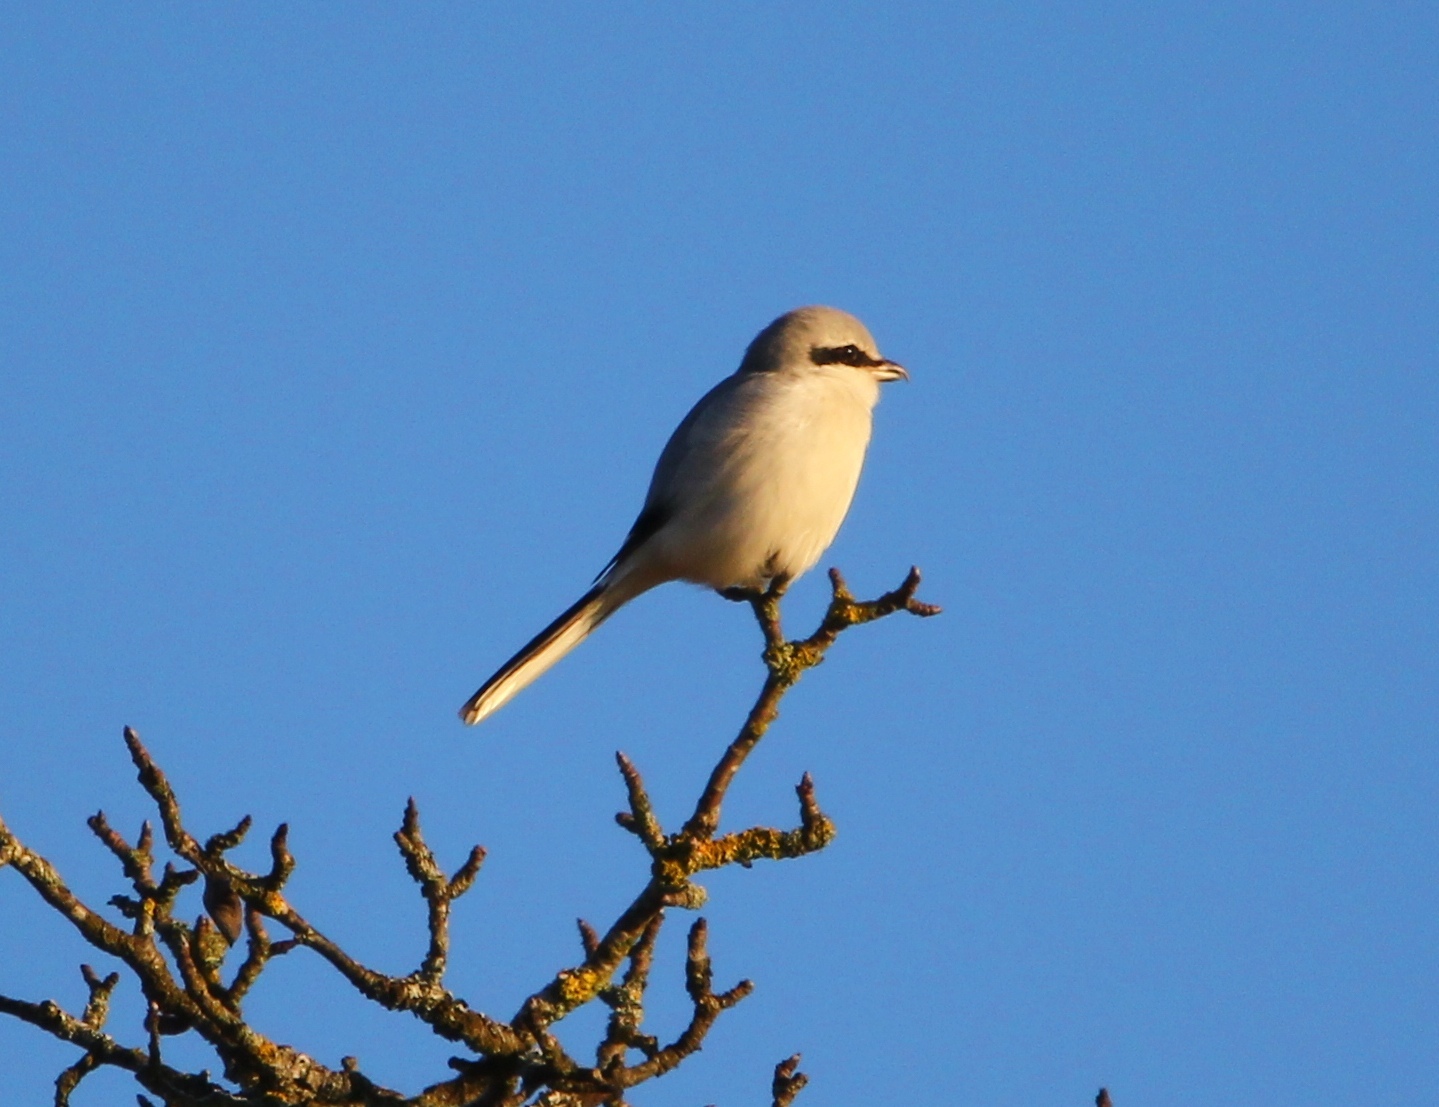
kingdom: Animalia
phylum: Chordata
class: Aves
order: Passeriformes
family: Laniidae
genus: Lanius
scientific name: Lanius excubitor
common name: Great grey shrike
